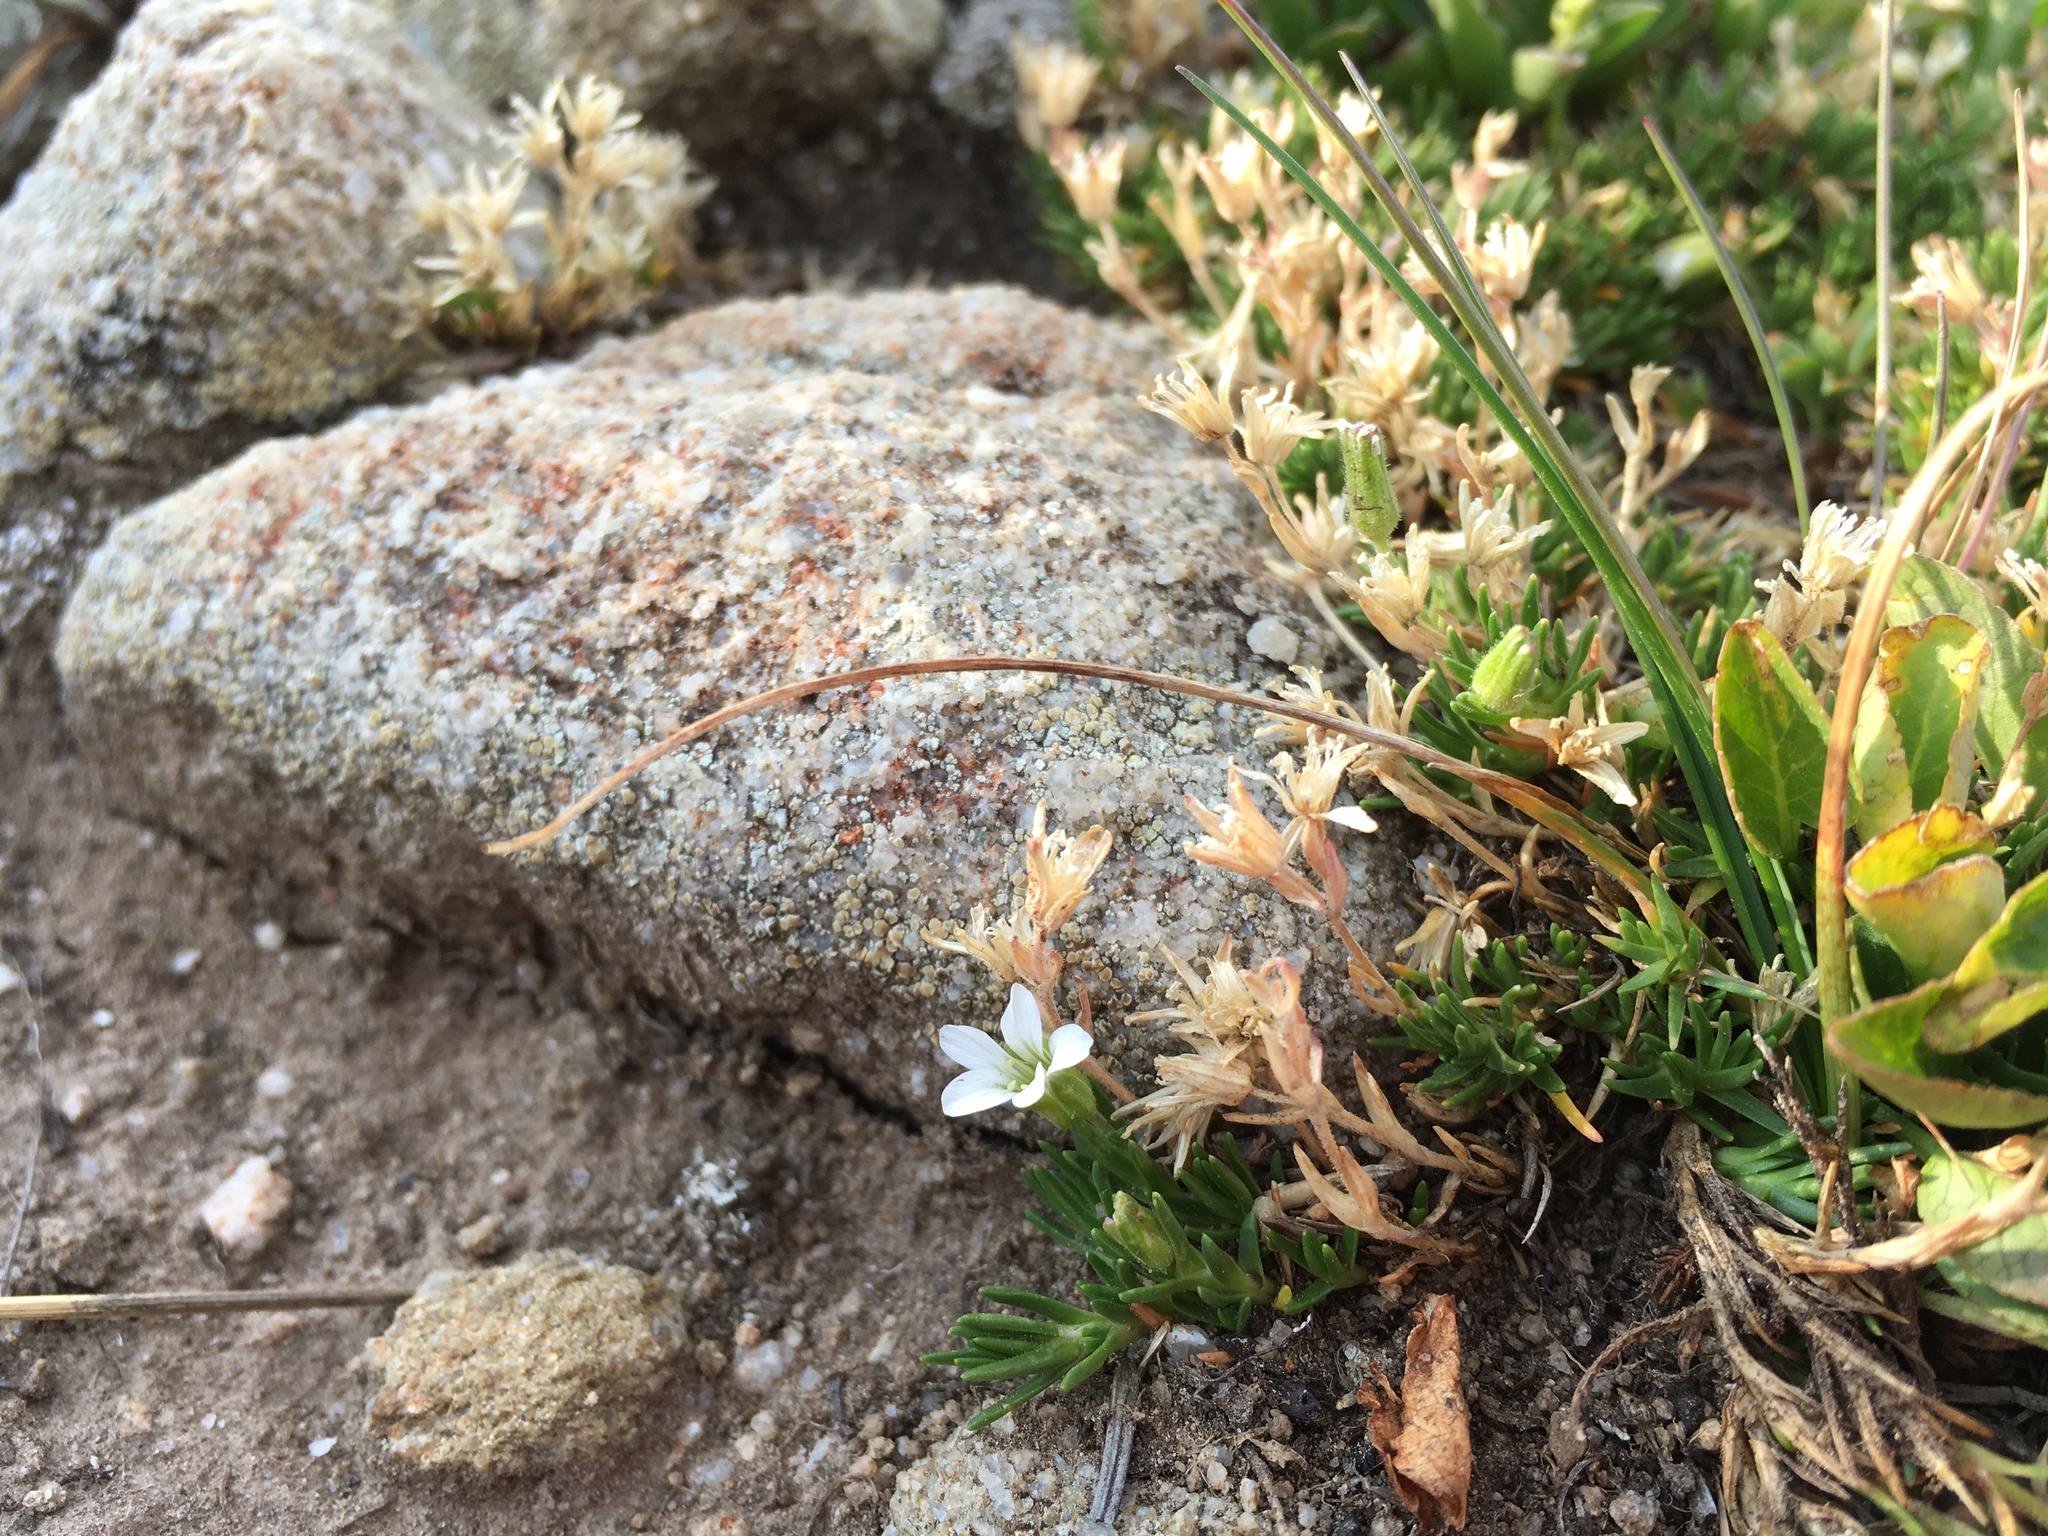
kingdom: Plantae
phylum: Tracheophyta
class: Magnoliopsida
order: Caryophyllales
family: Caryophyllaceae
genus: Cherleria
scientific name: Cherleria obtusiloba
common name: Alpine stitchwort
